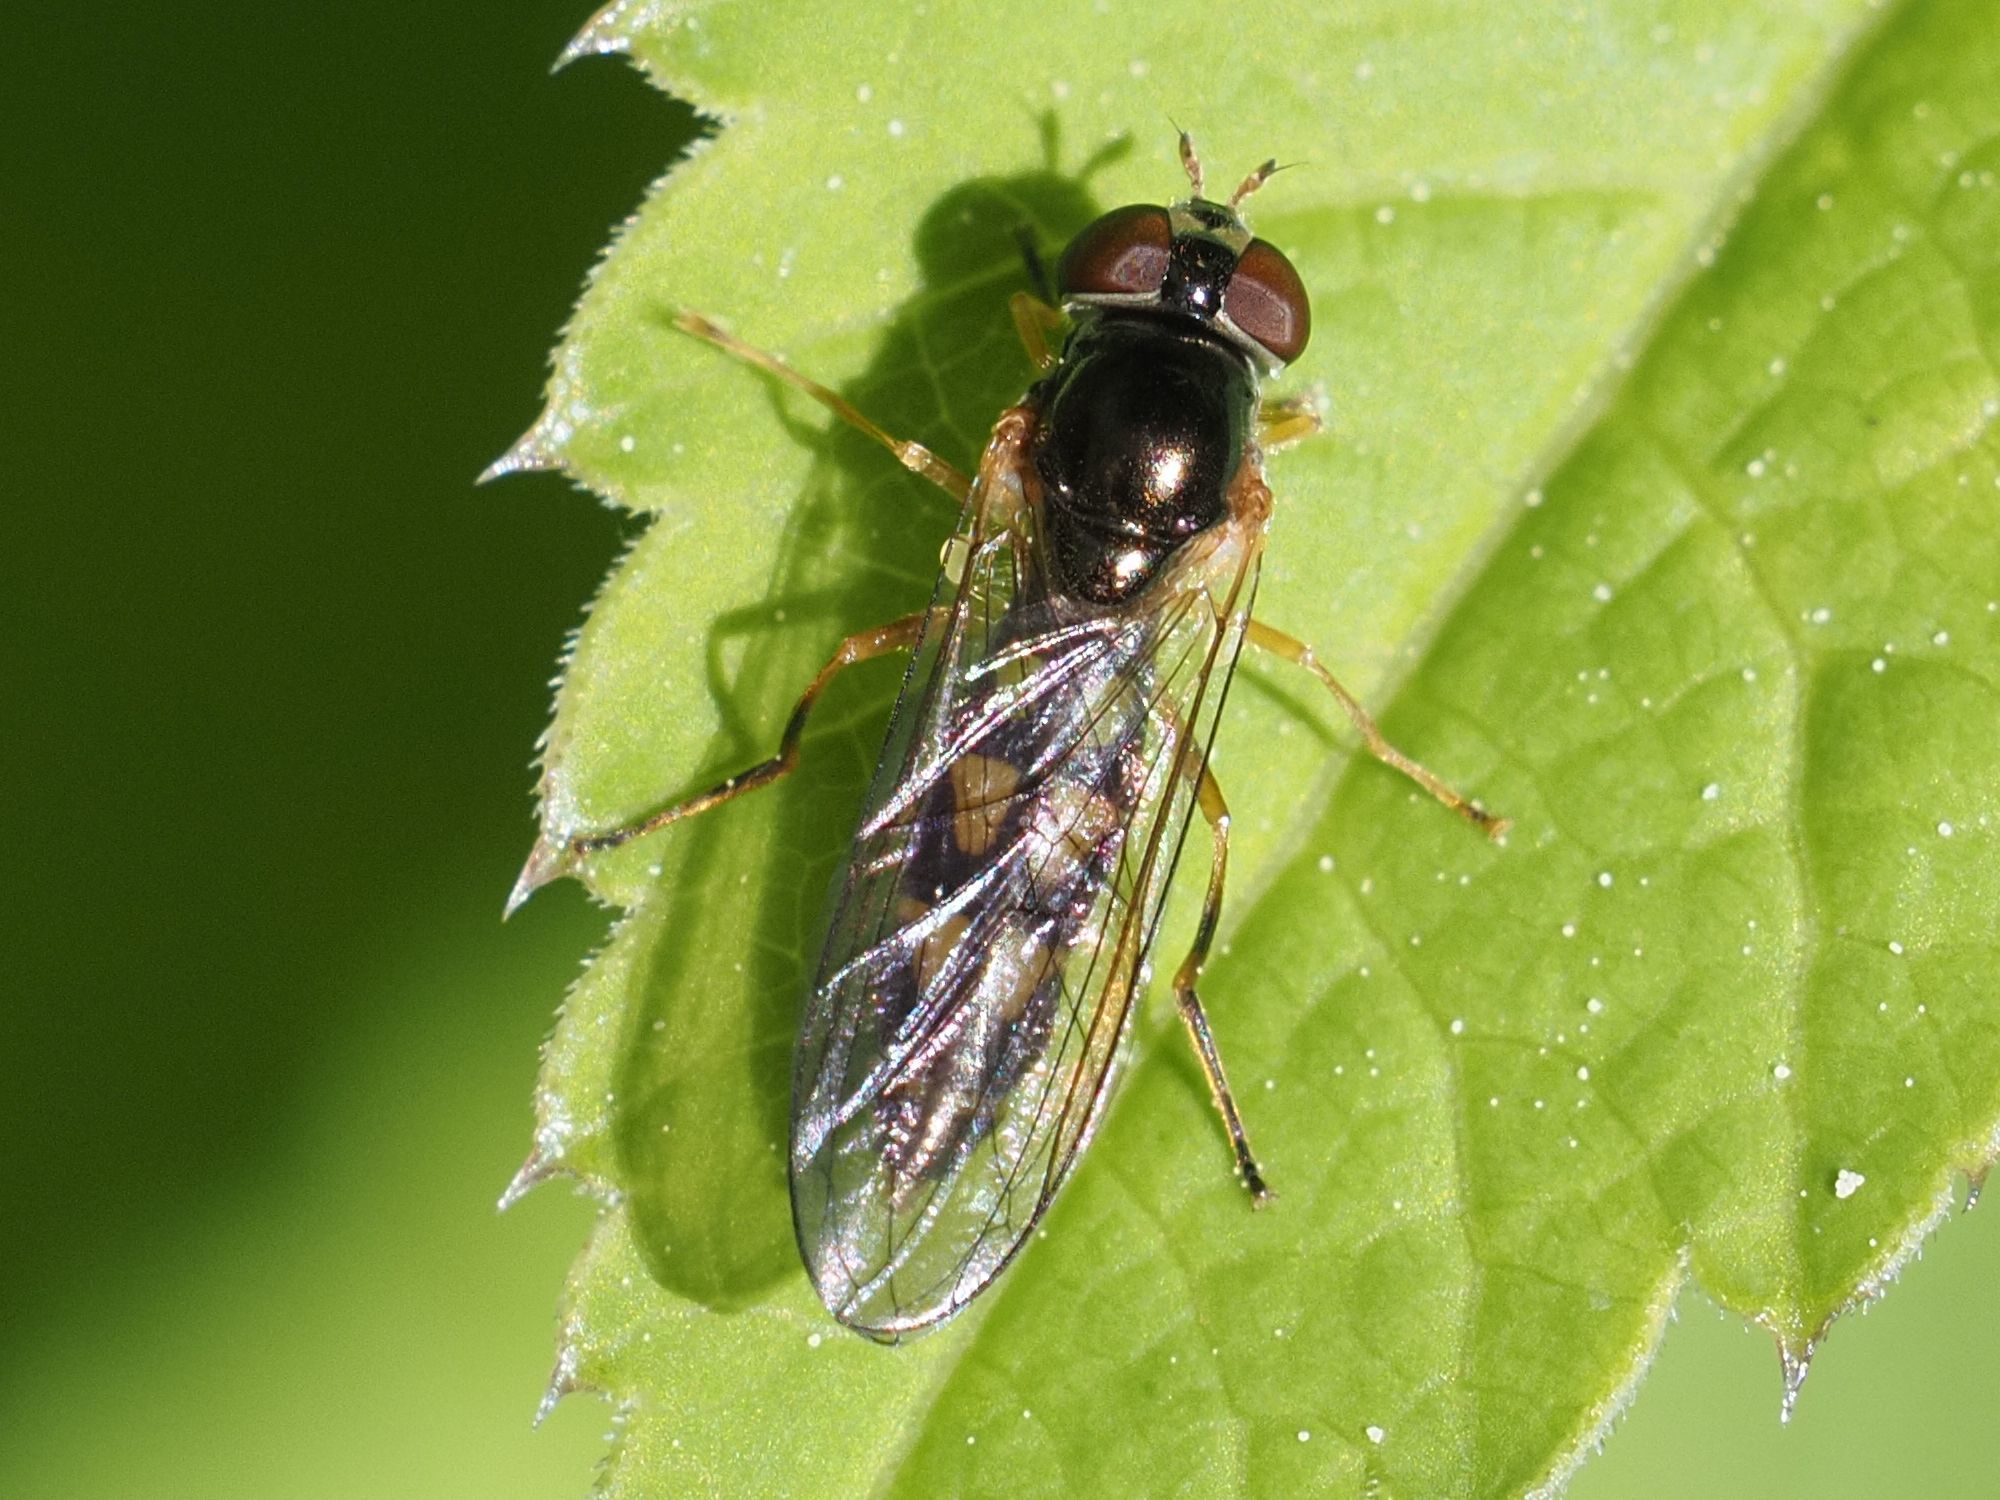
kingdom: Animalia
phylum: Arthropoda
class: Insecta
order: Diptera
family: Syrphidae
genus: Melanostoma
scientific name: Melanostoma scalare
